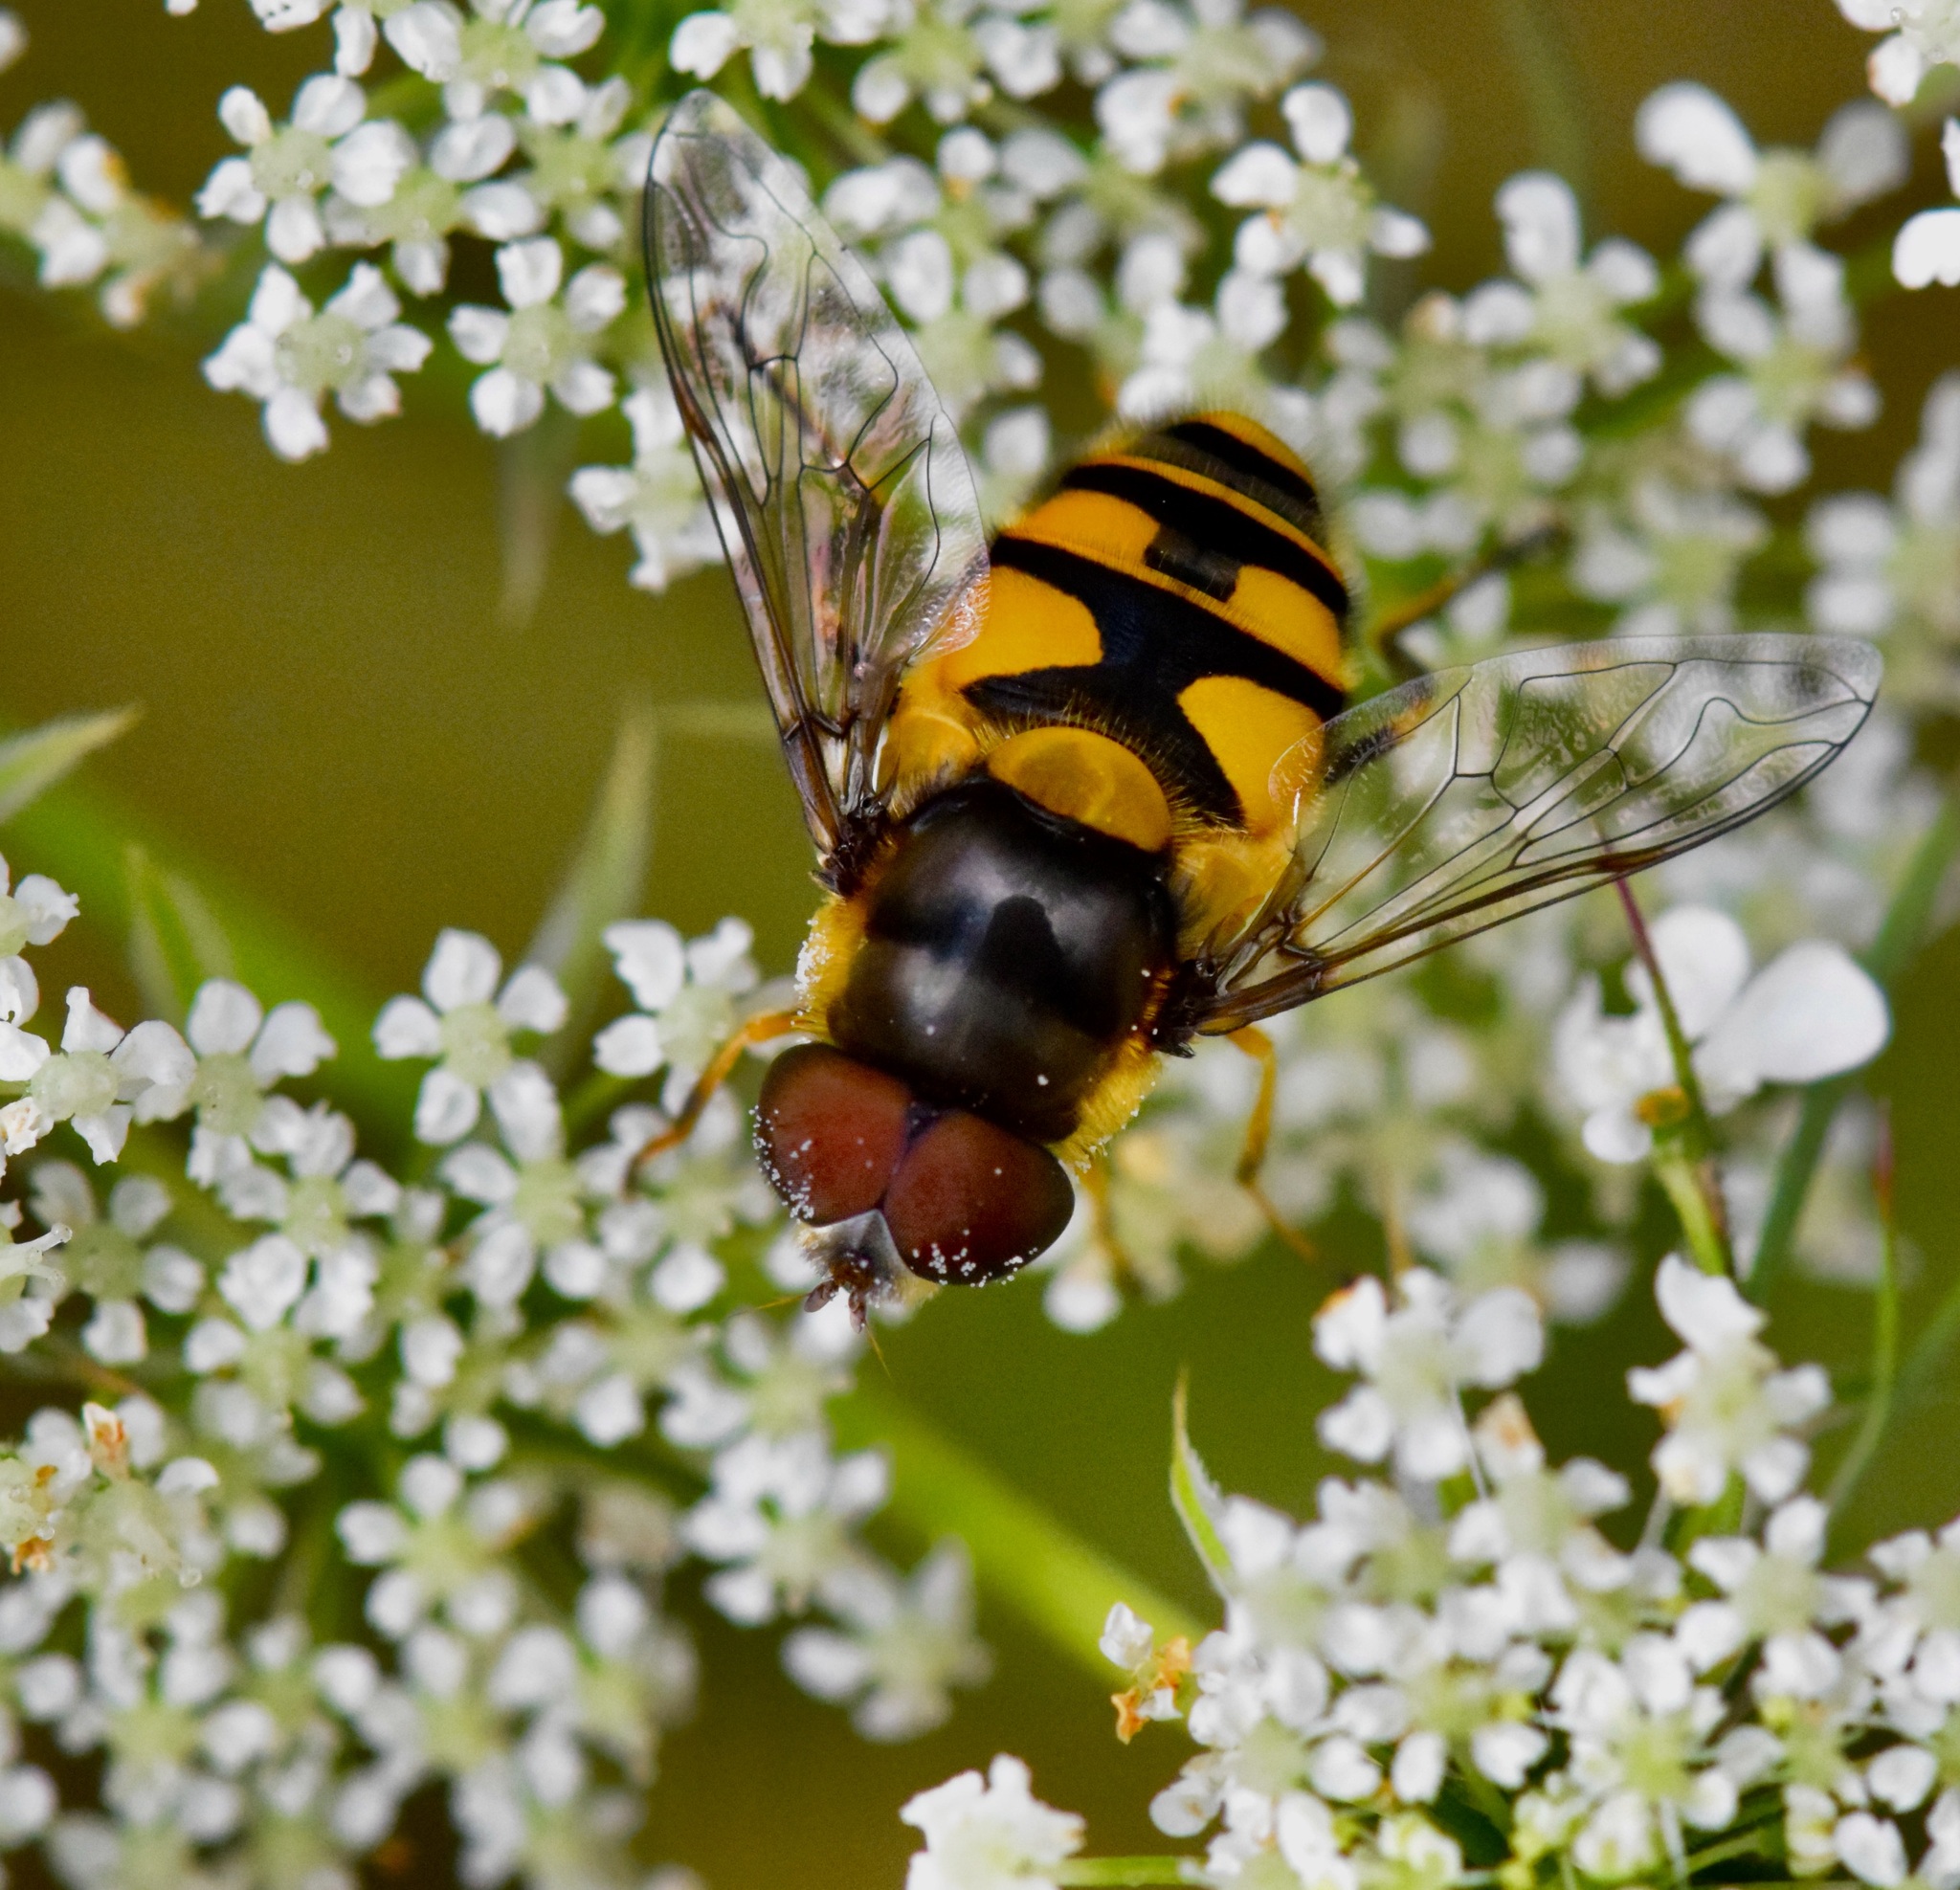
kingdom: Animalia
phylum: Arthropoda
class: Insecta
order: Diptera
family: Syrphidae
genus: Eristalis
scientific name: Eristalis transversa
